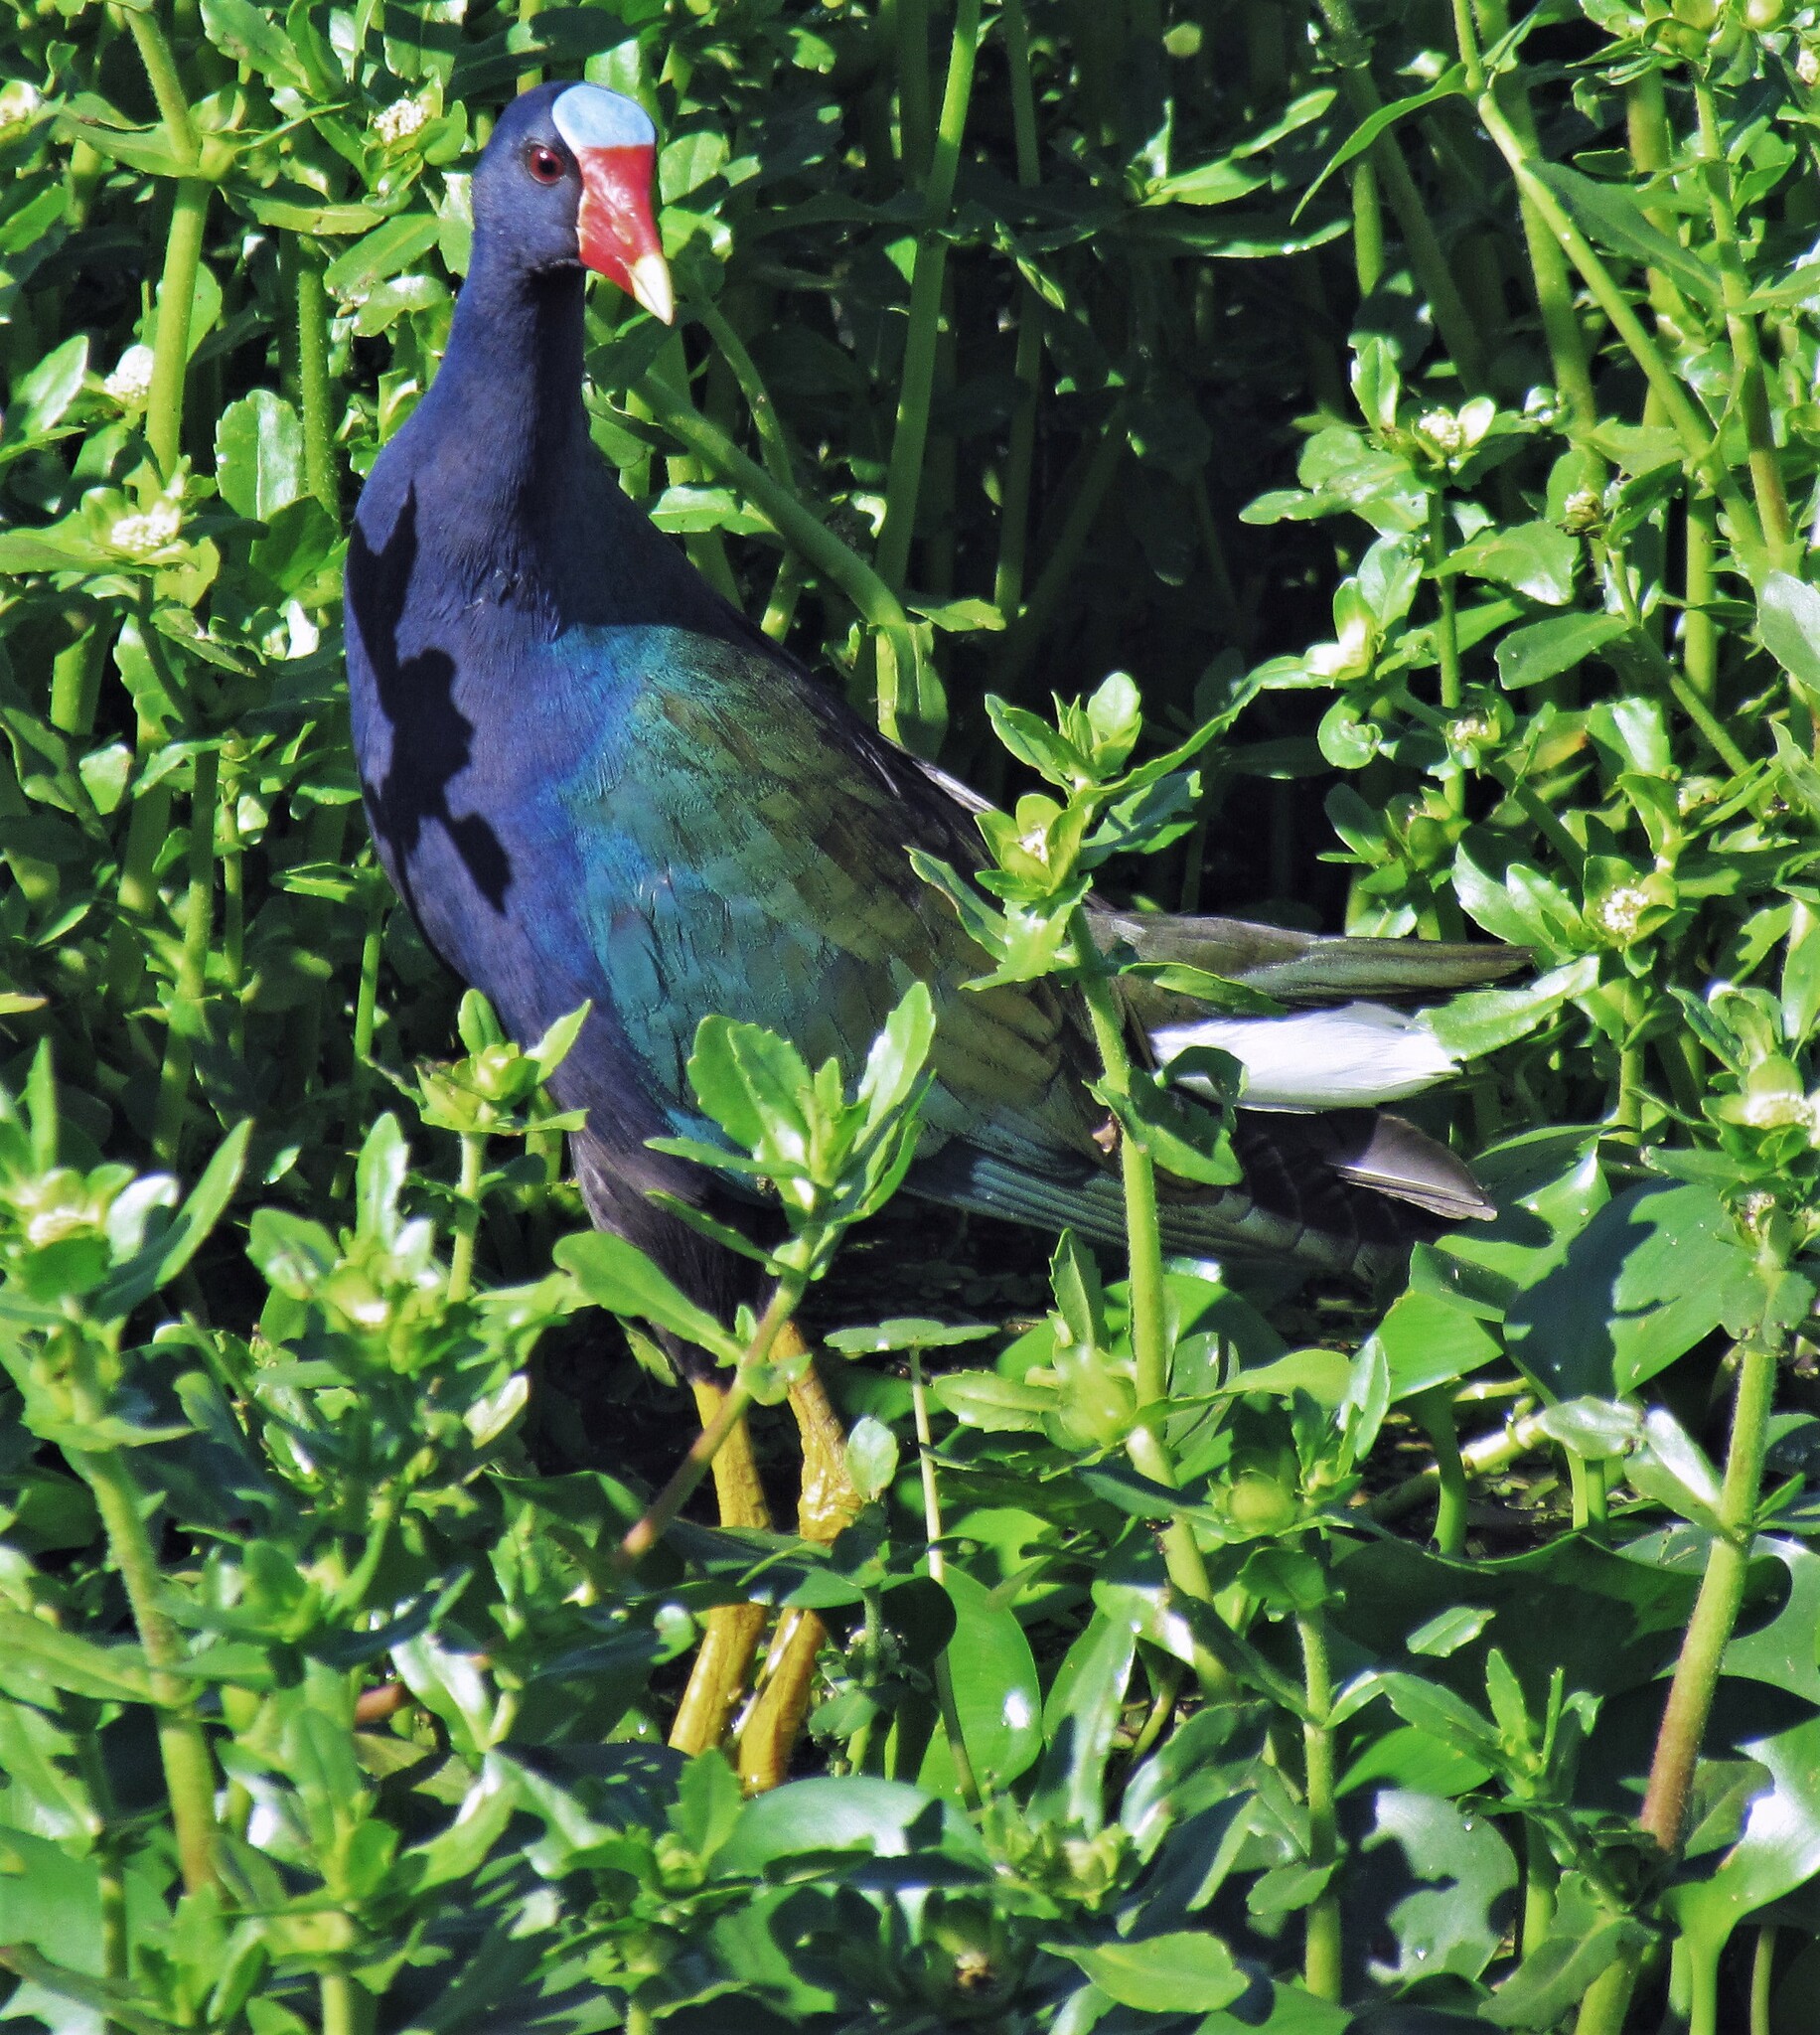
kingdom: Animalia
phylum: Chordata
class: Aves
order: Gruiformes
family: Rallidae
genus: Porphyrio
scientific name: Porphyrio martinica
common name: Purple gallinule
